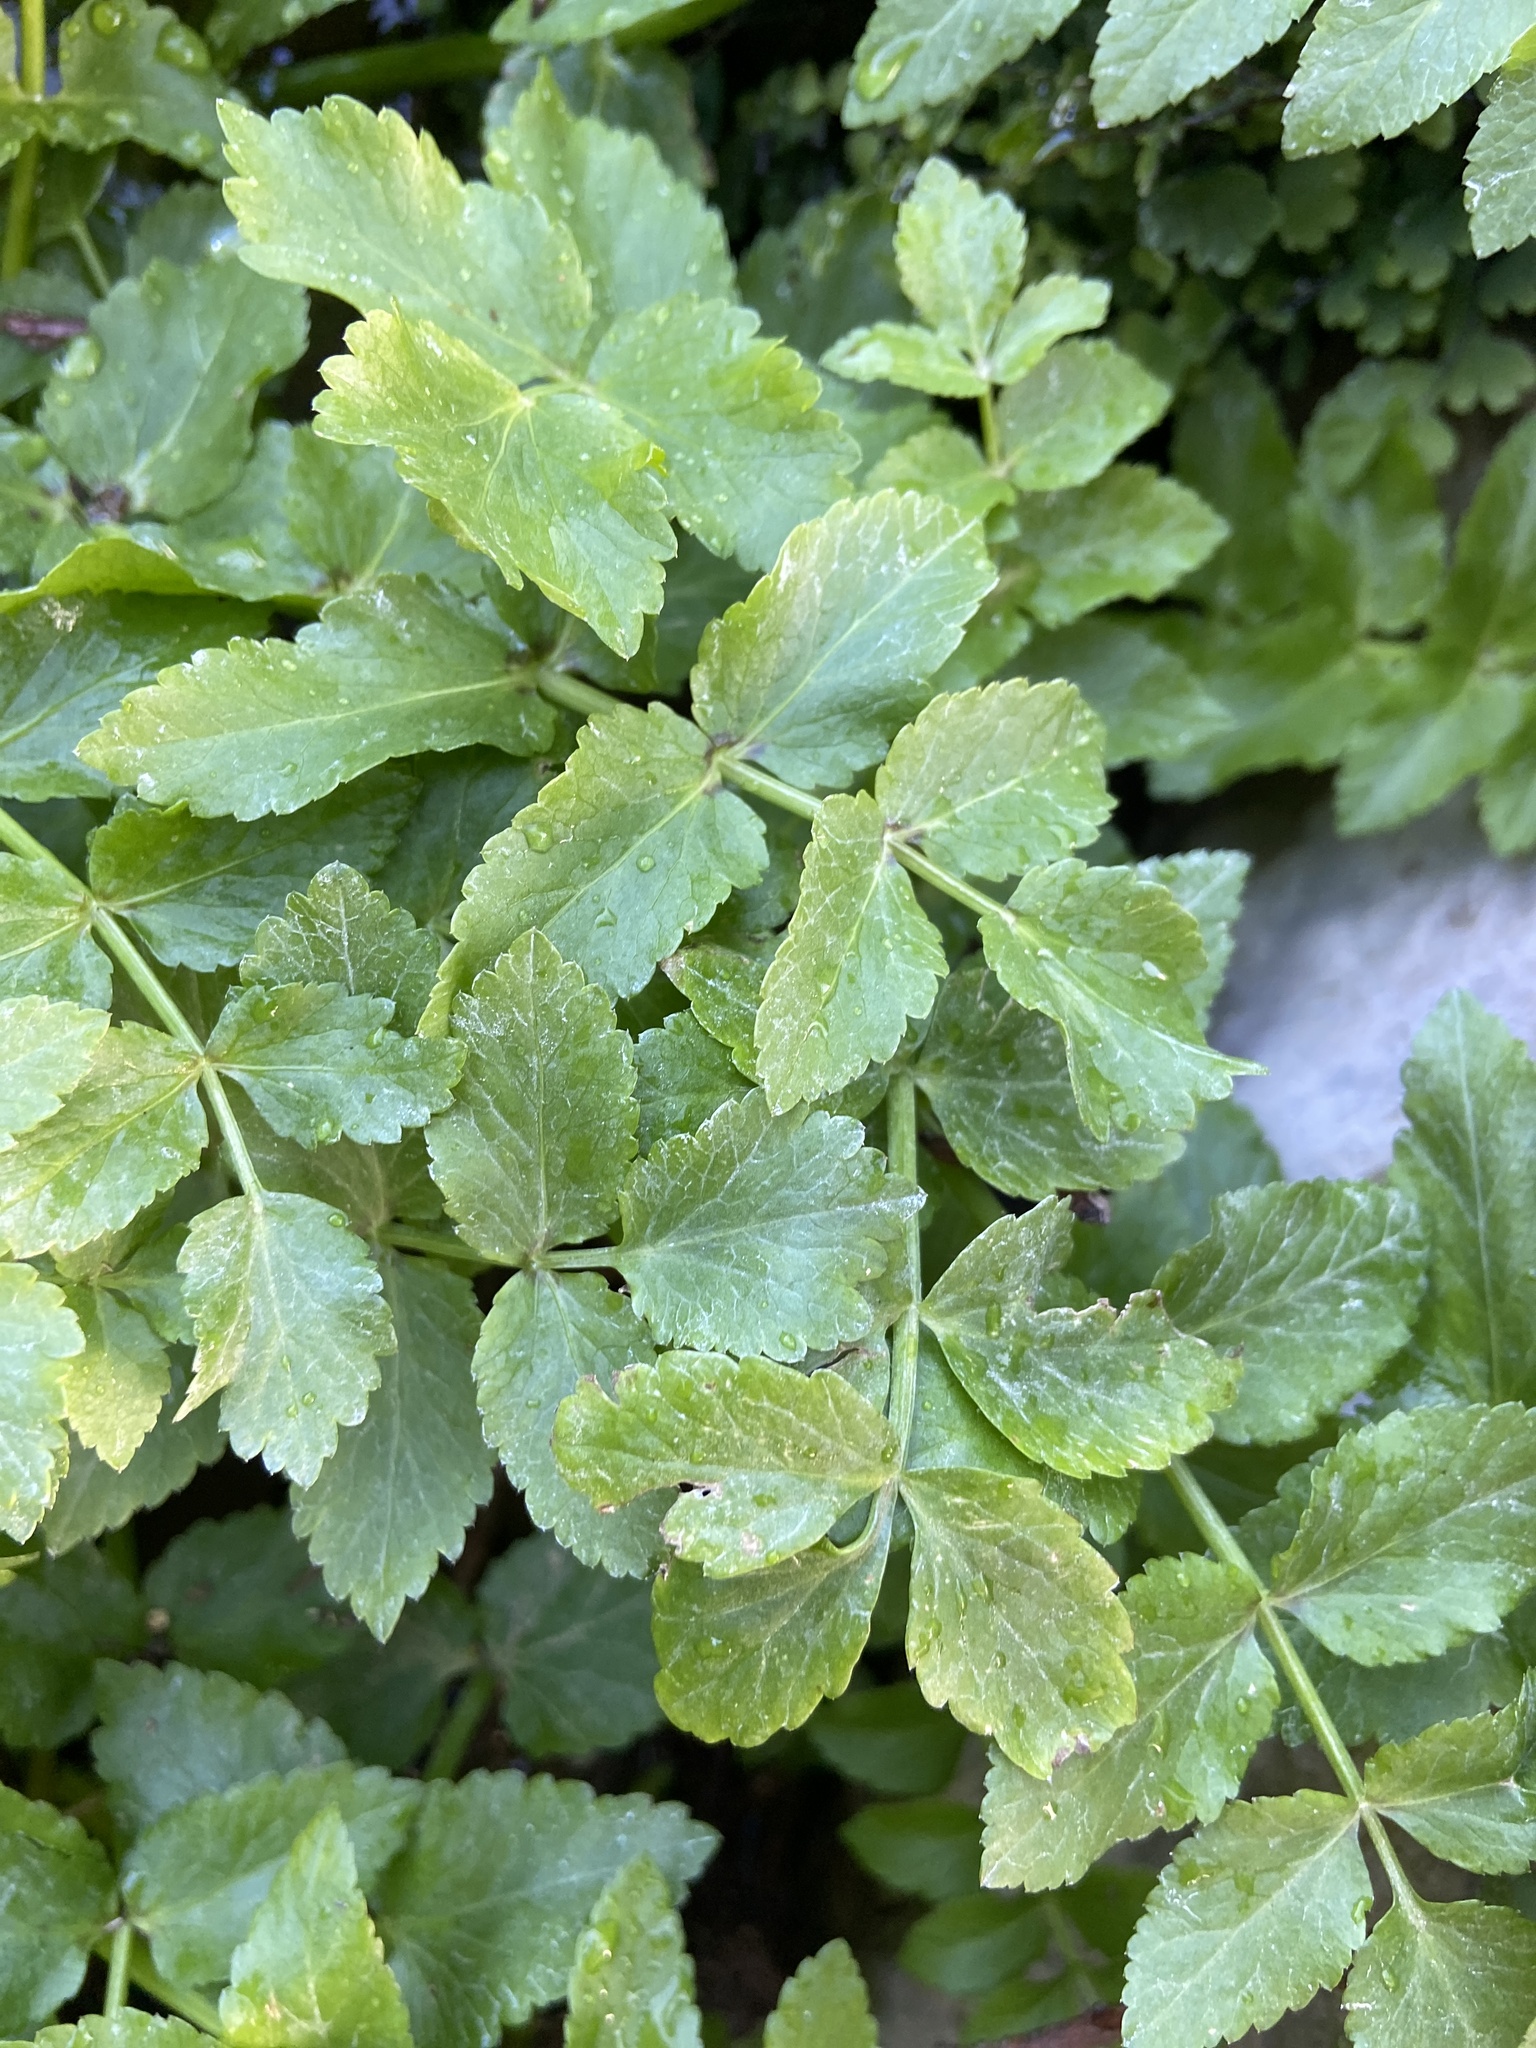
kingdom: Plantae
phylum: Tracheophyta
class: Magnoliopsida
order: Apiales
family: Apiaceae
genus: Helosciadium
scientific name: Helosciadium nodiflorum
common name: Fool's-watercress
